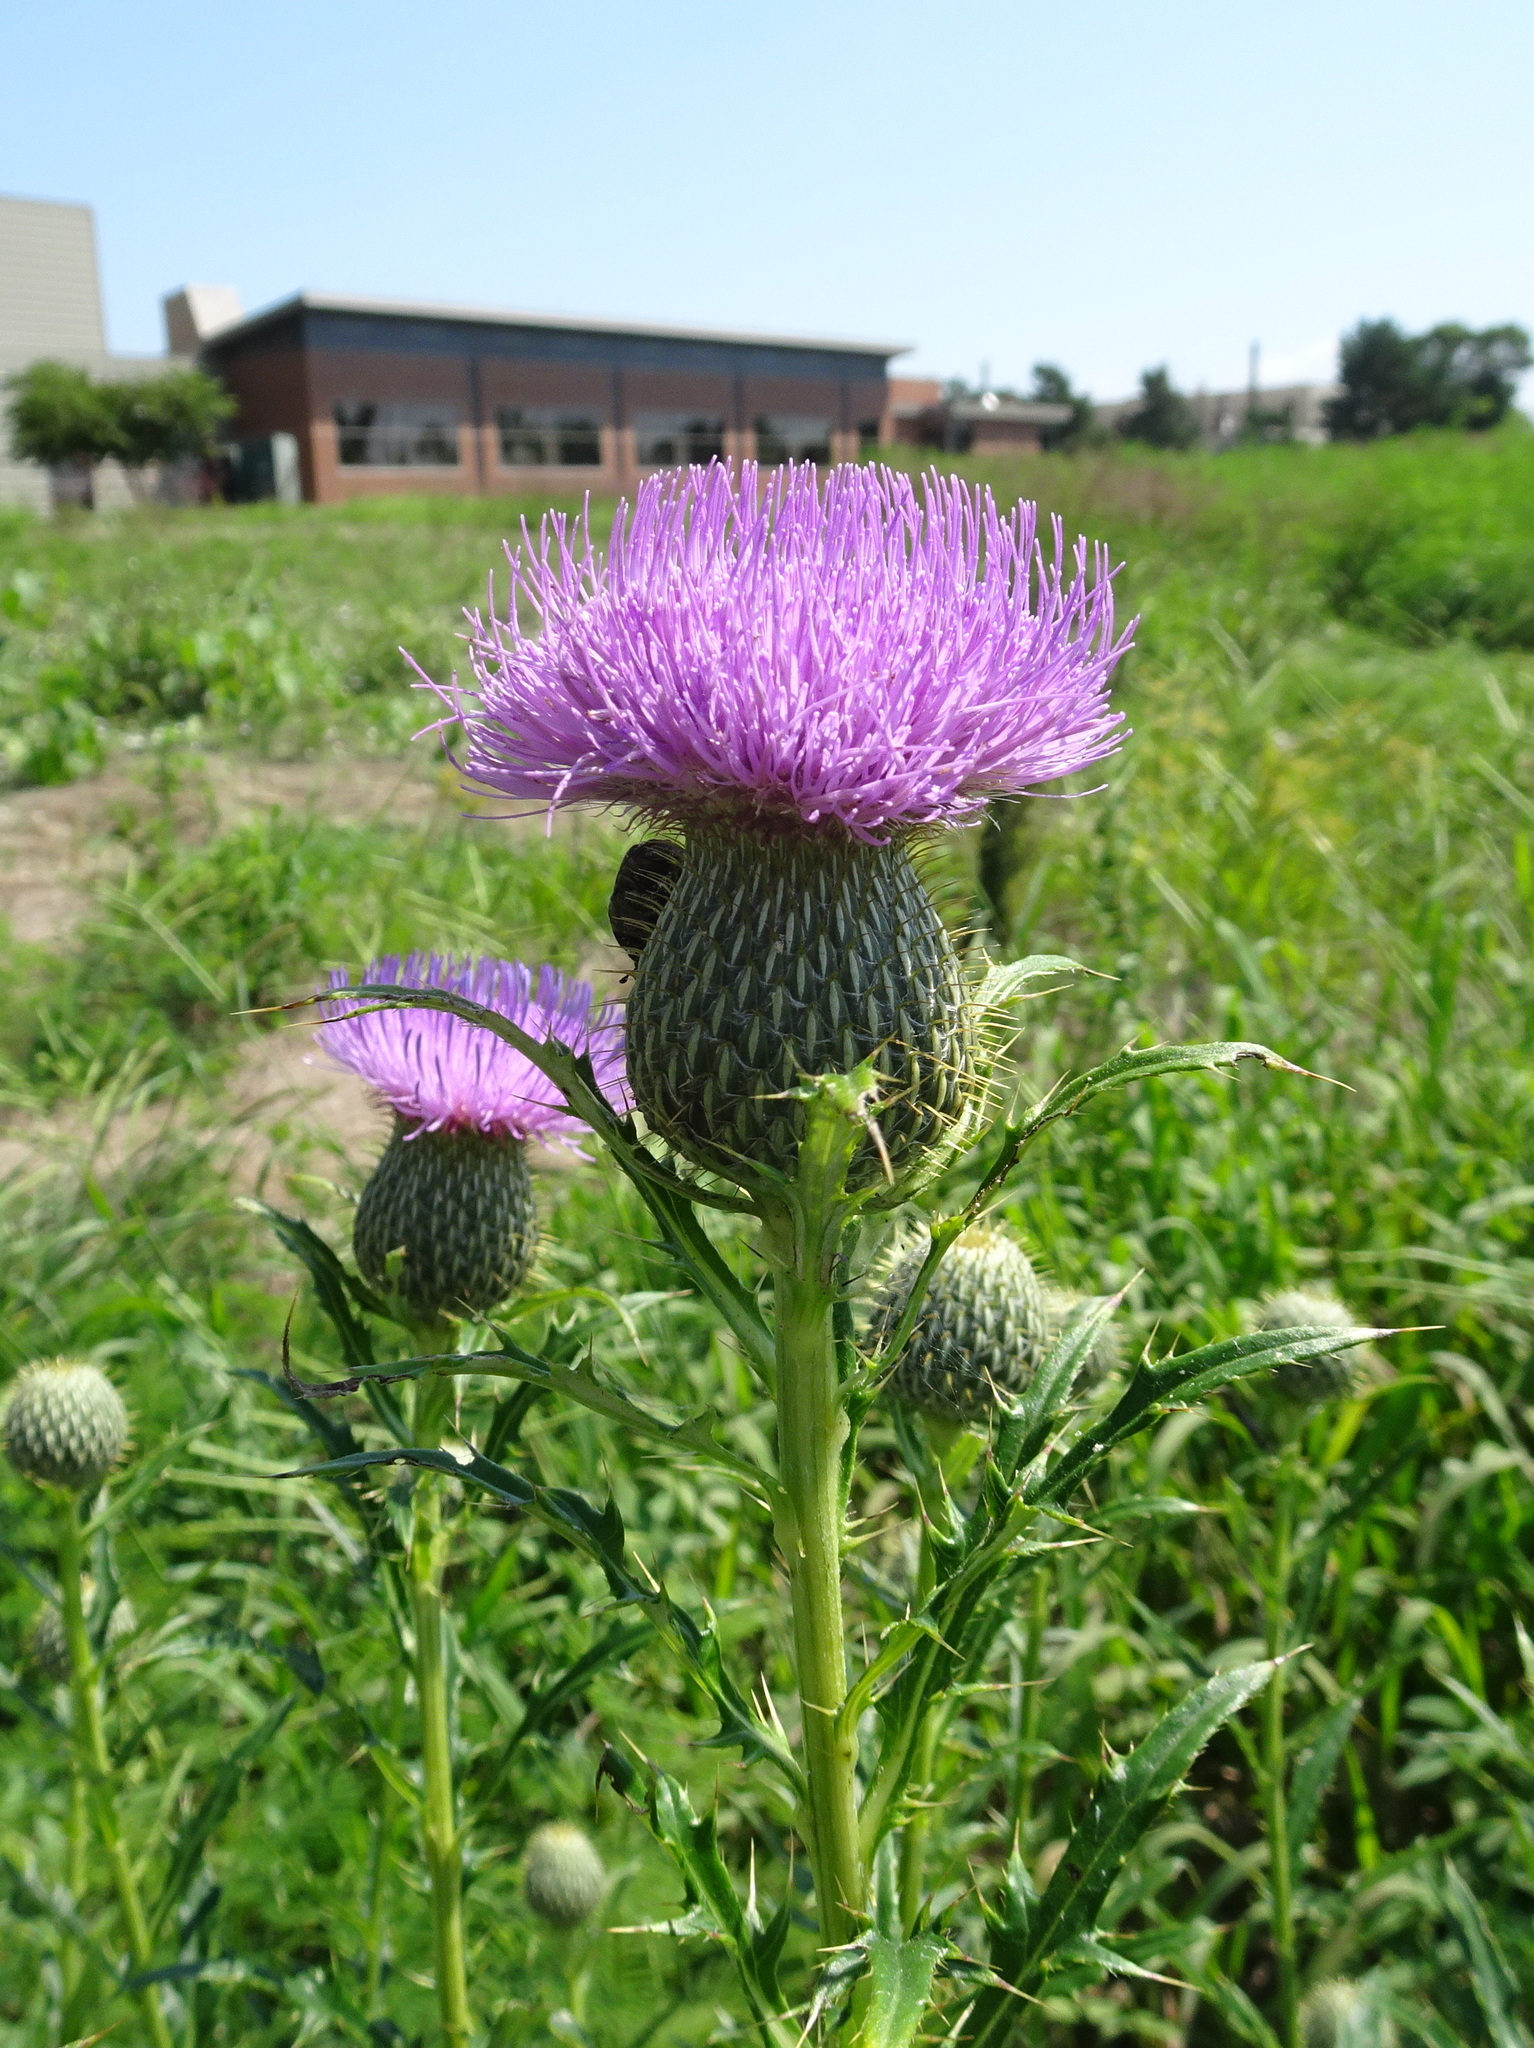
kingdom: Plantae
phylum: Tracheophyta
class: Magnoliopsida
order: Asterales
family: Asteraceae
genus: Cirsium
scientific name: Cirsium altissimum
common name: Roadside thistle
